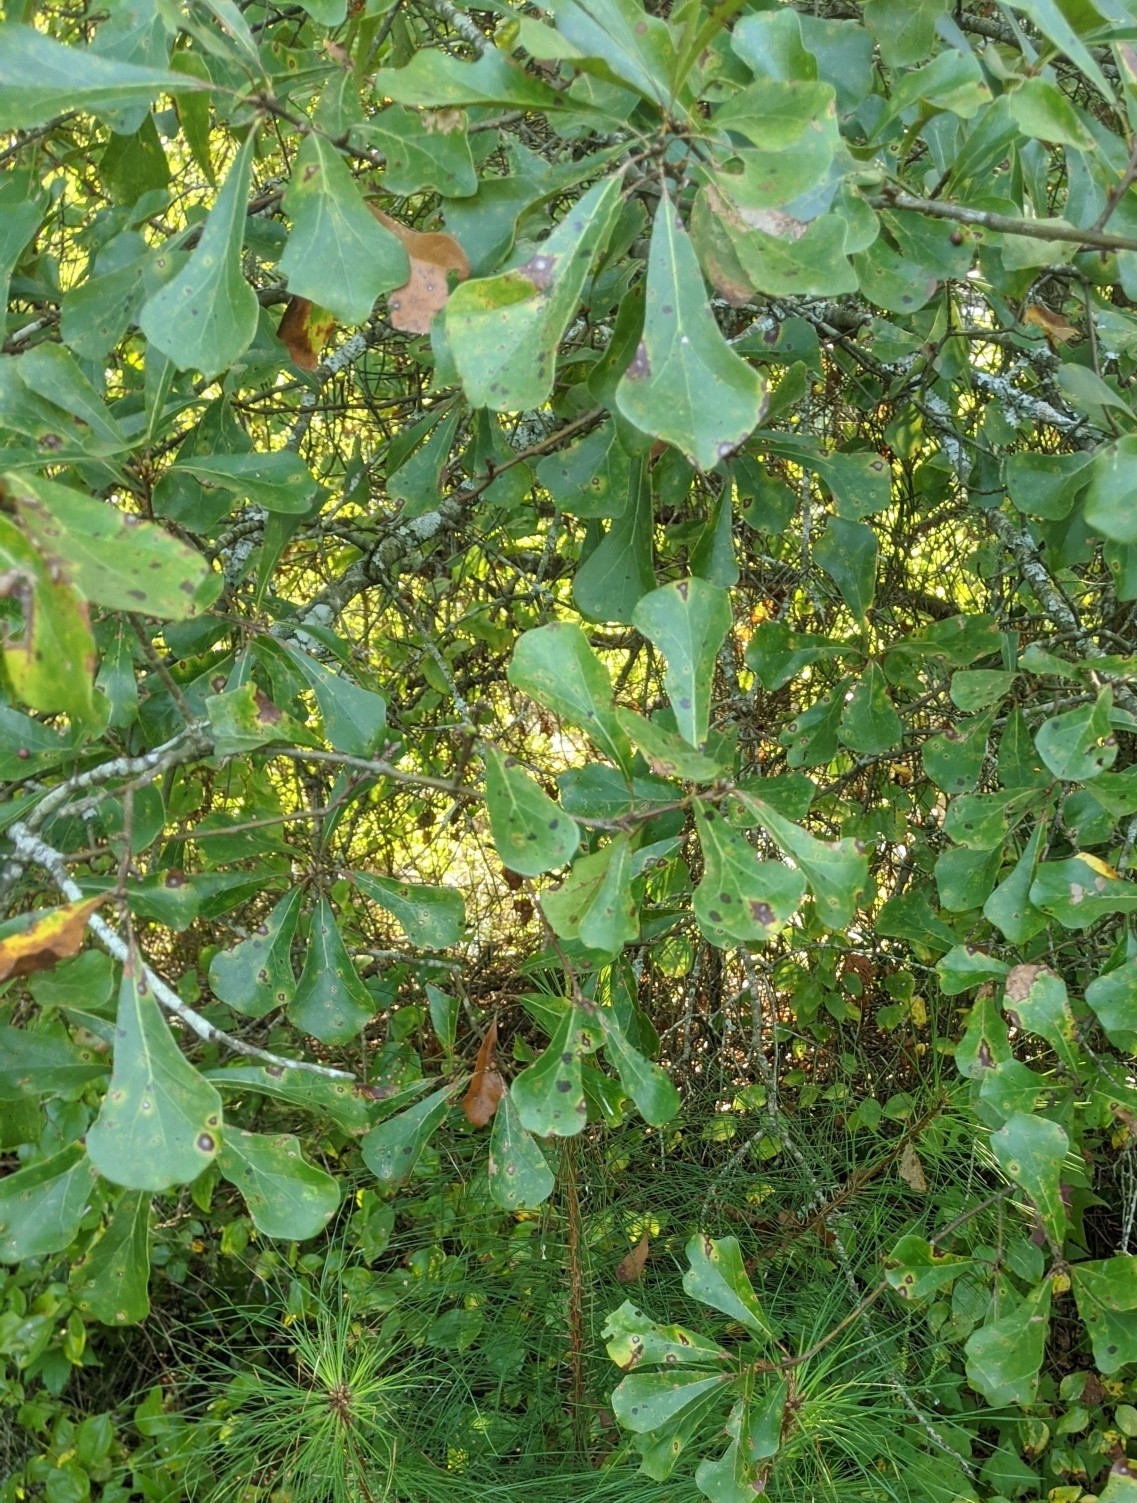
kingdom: Plantae
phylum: Tracheophyta
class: Magnoliopsida
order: Fagales
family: Fagaceae
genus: Quercus
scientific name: Quercus nigra
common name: Water oak
